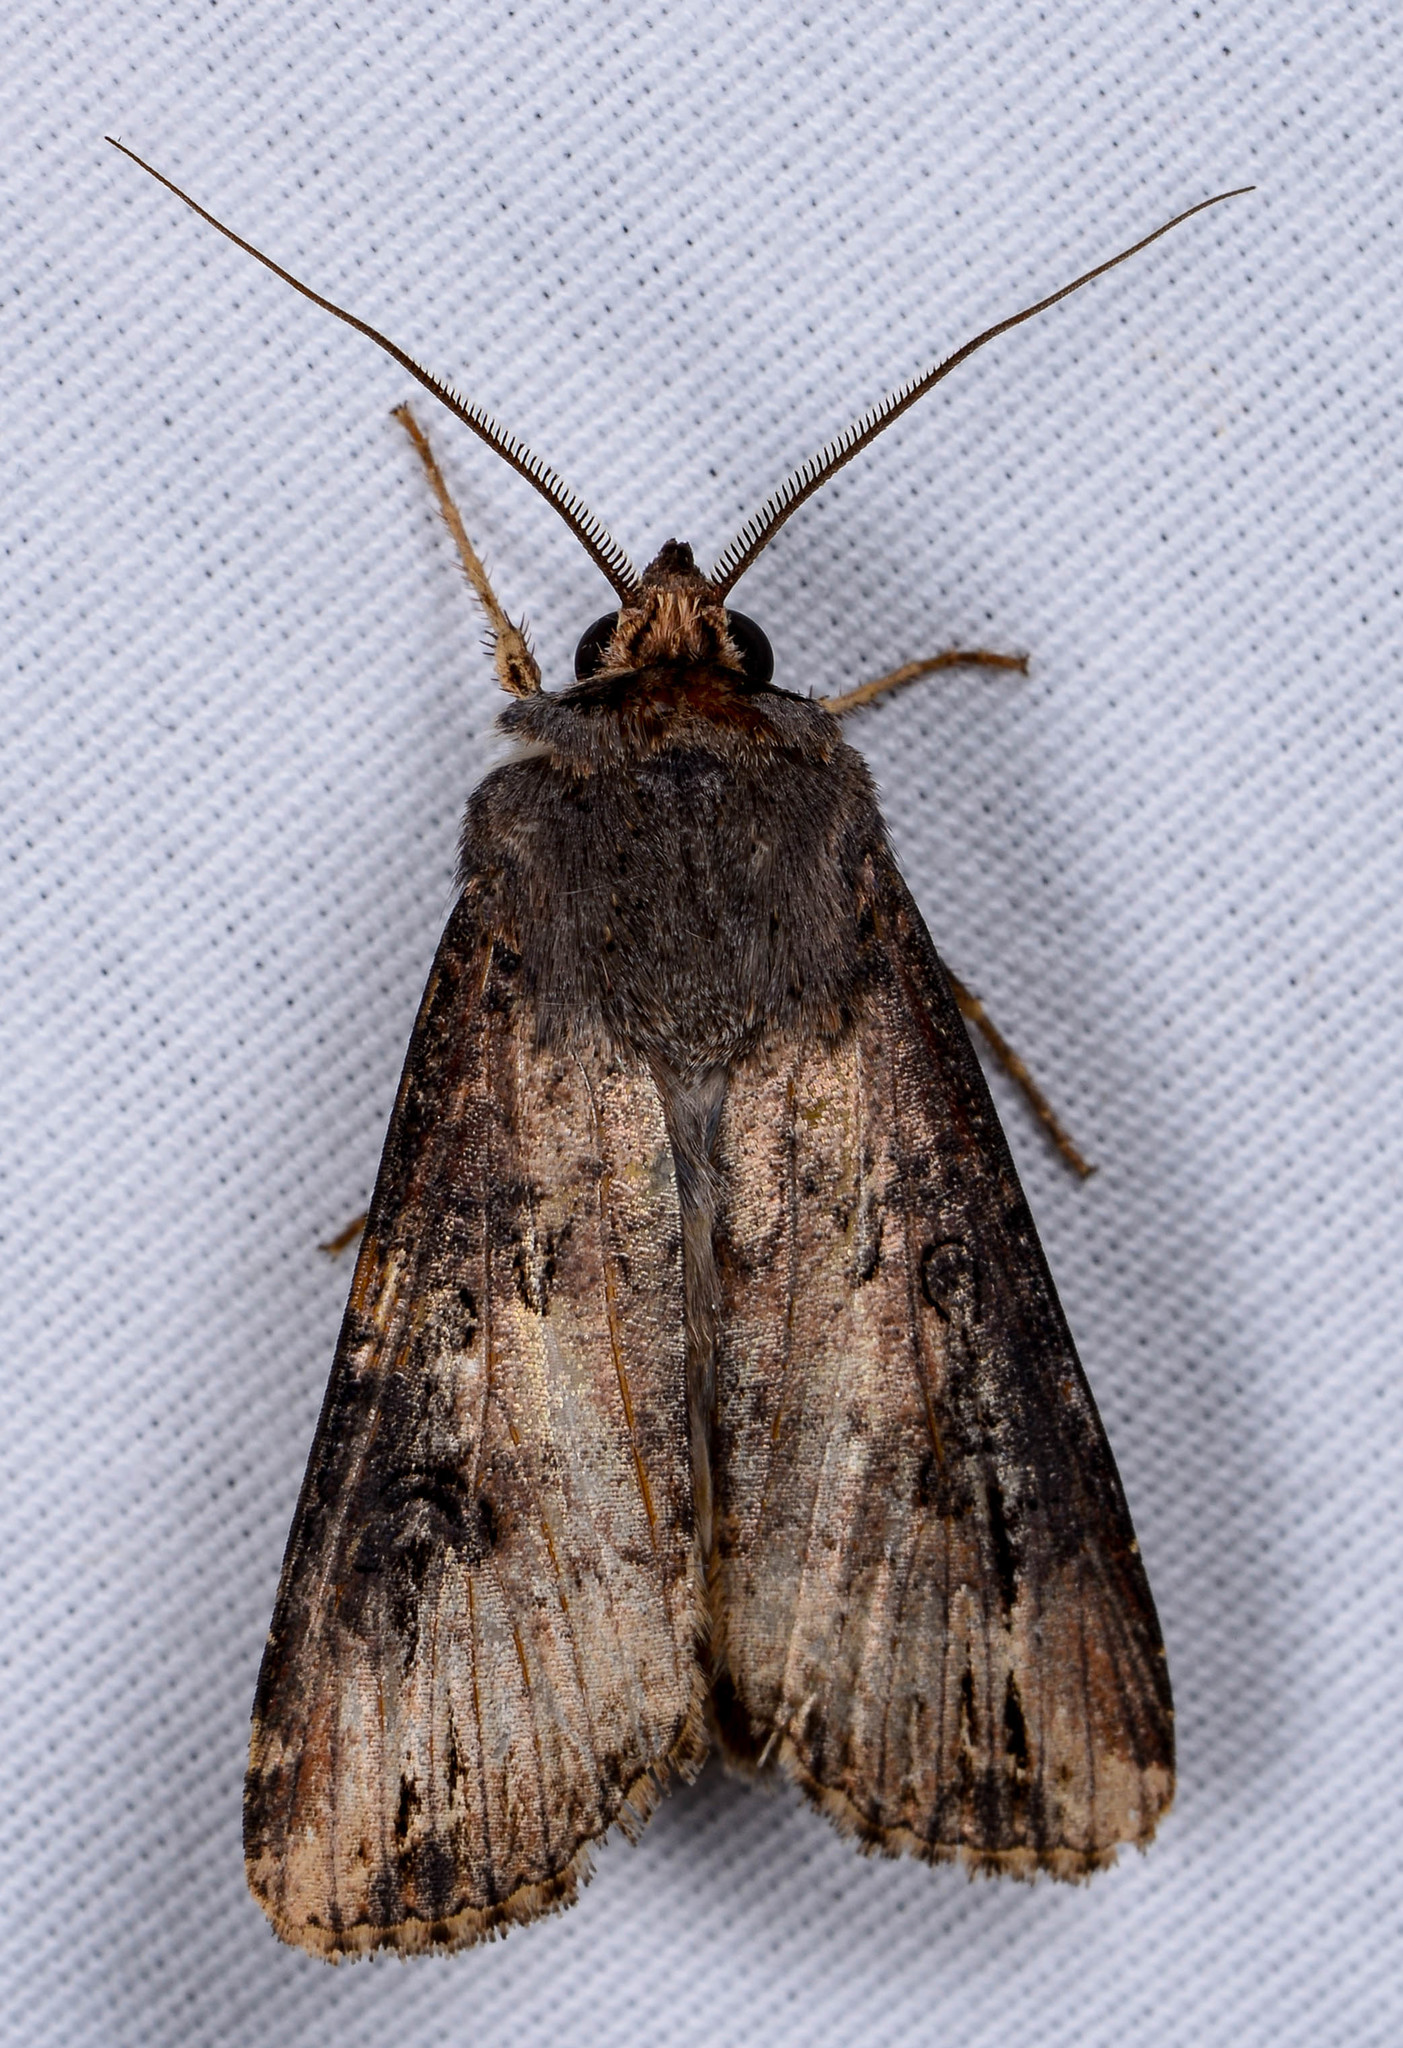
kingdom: Animalia
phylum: Arthropoda
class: Insecta
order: Lepidoptera
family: Noctuidae
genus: Agrotis
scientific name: Agrotis ipsilon
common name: Dark sword-grass
